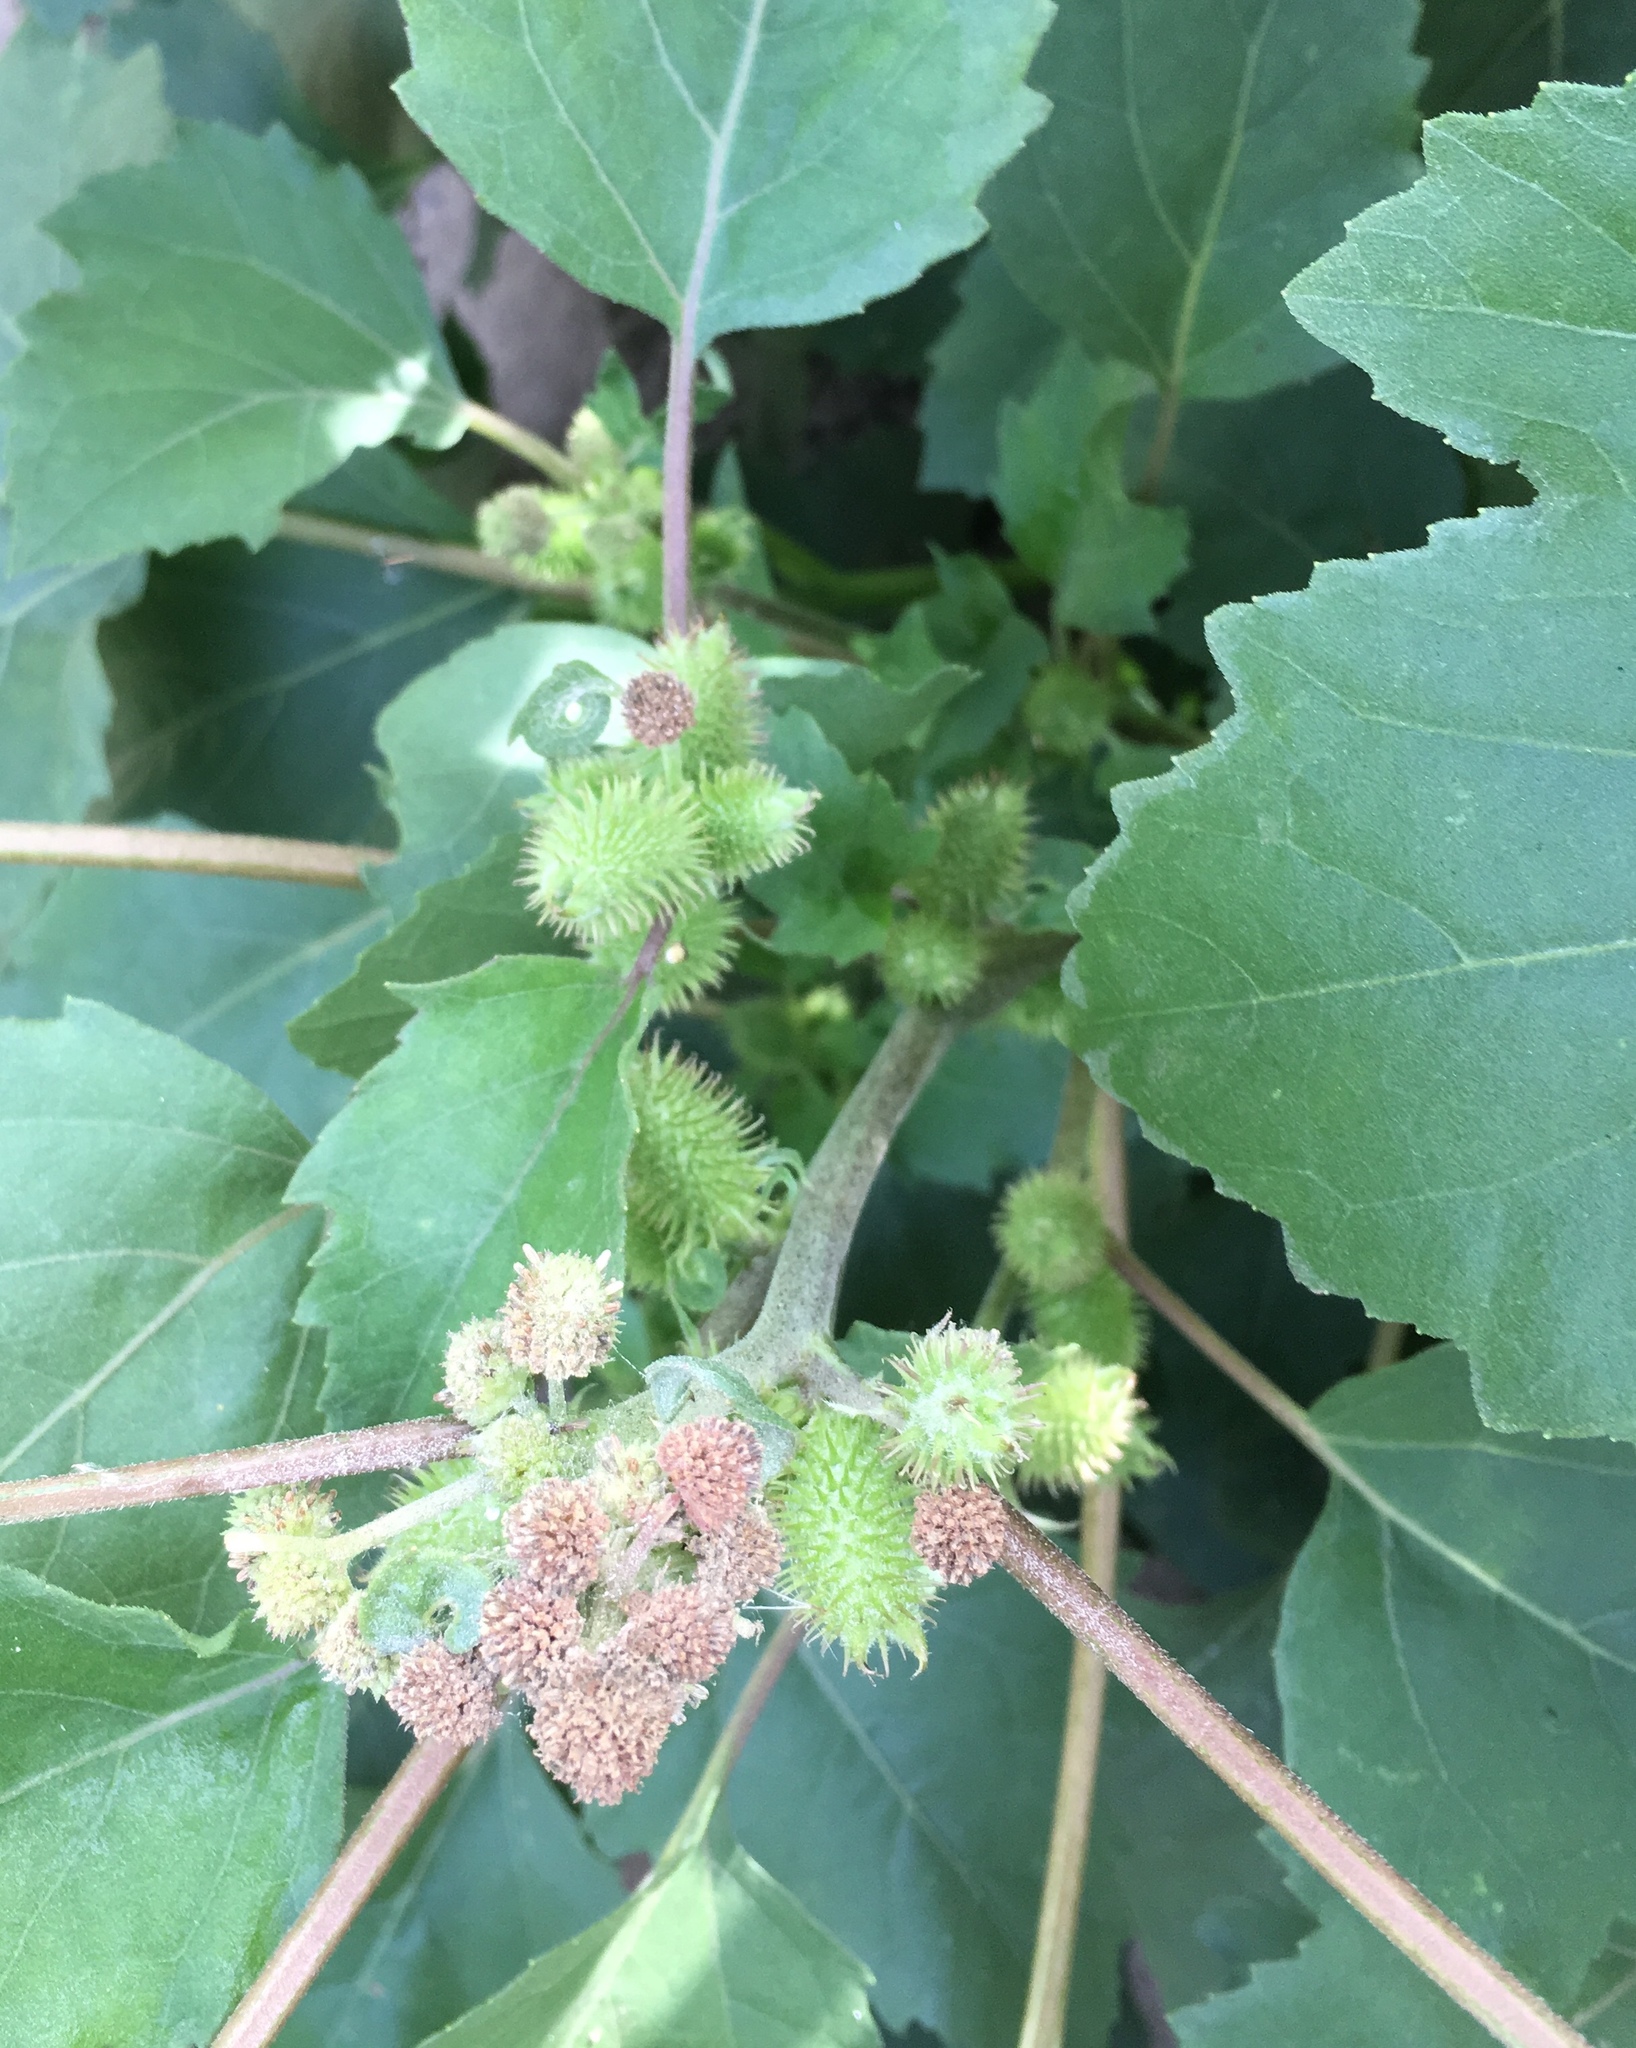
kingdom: Plantae
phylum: Tracheophyta
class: Magnoliopsida
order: Asterales
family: Asteraceae
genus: Xanthium
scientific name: Xanthium strumarium
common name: Rough cocklebur
